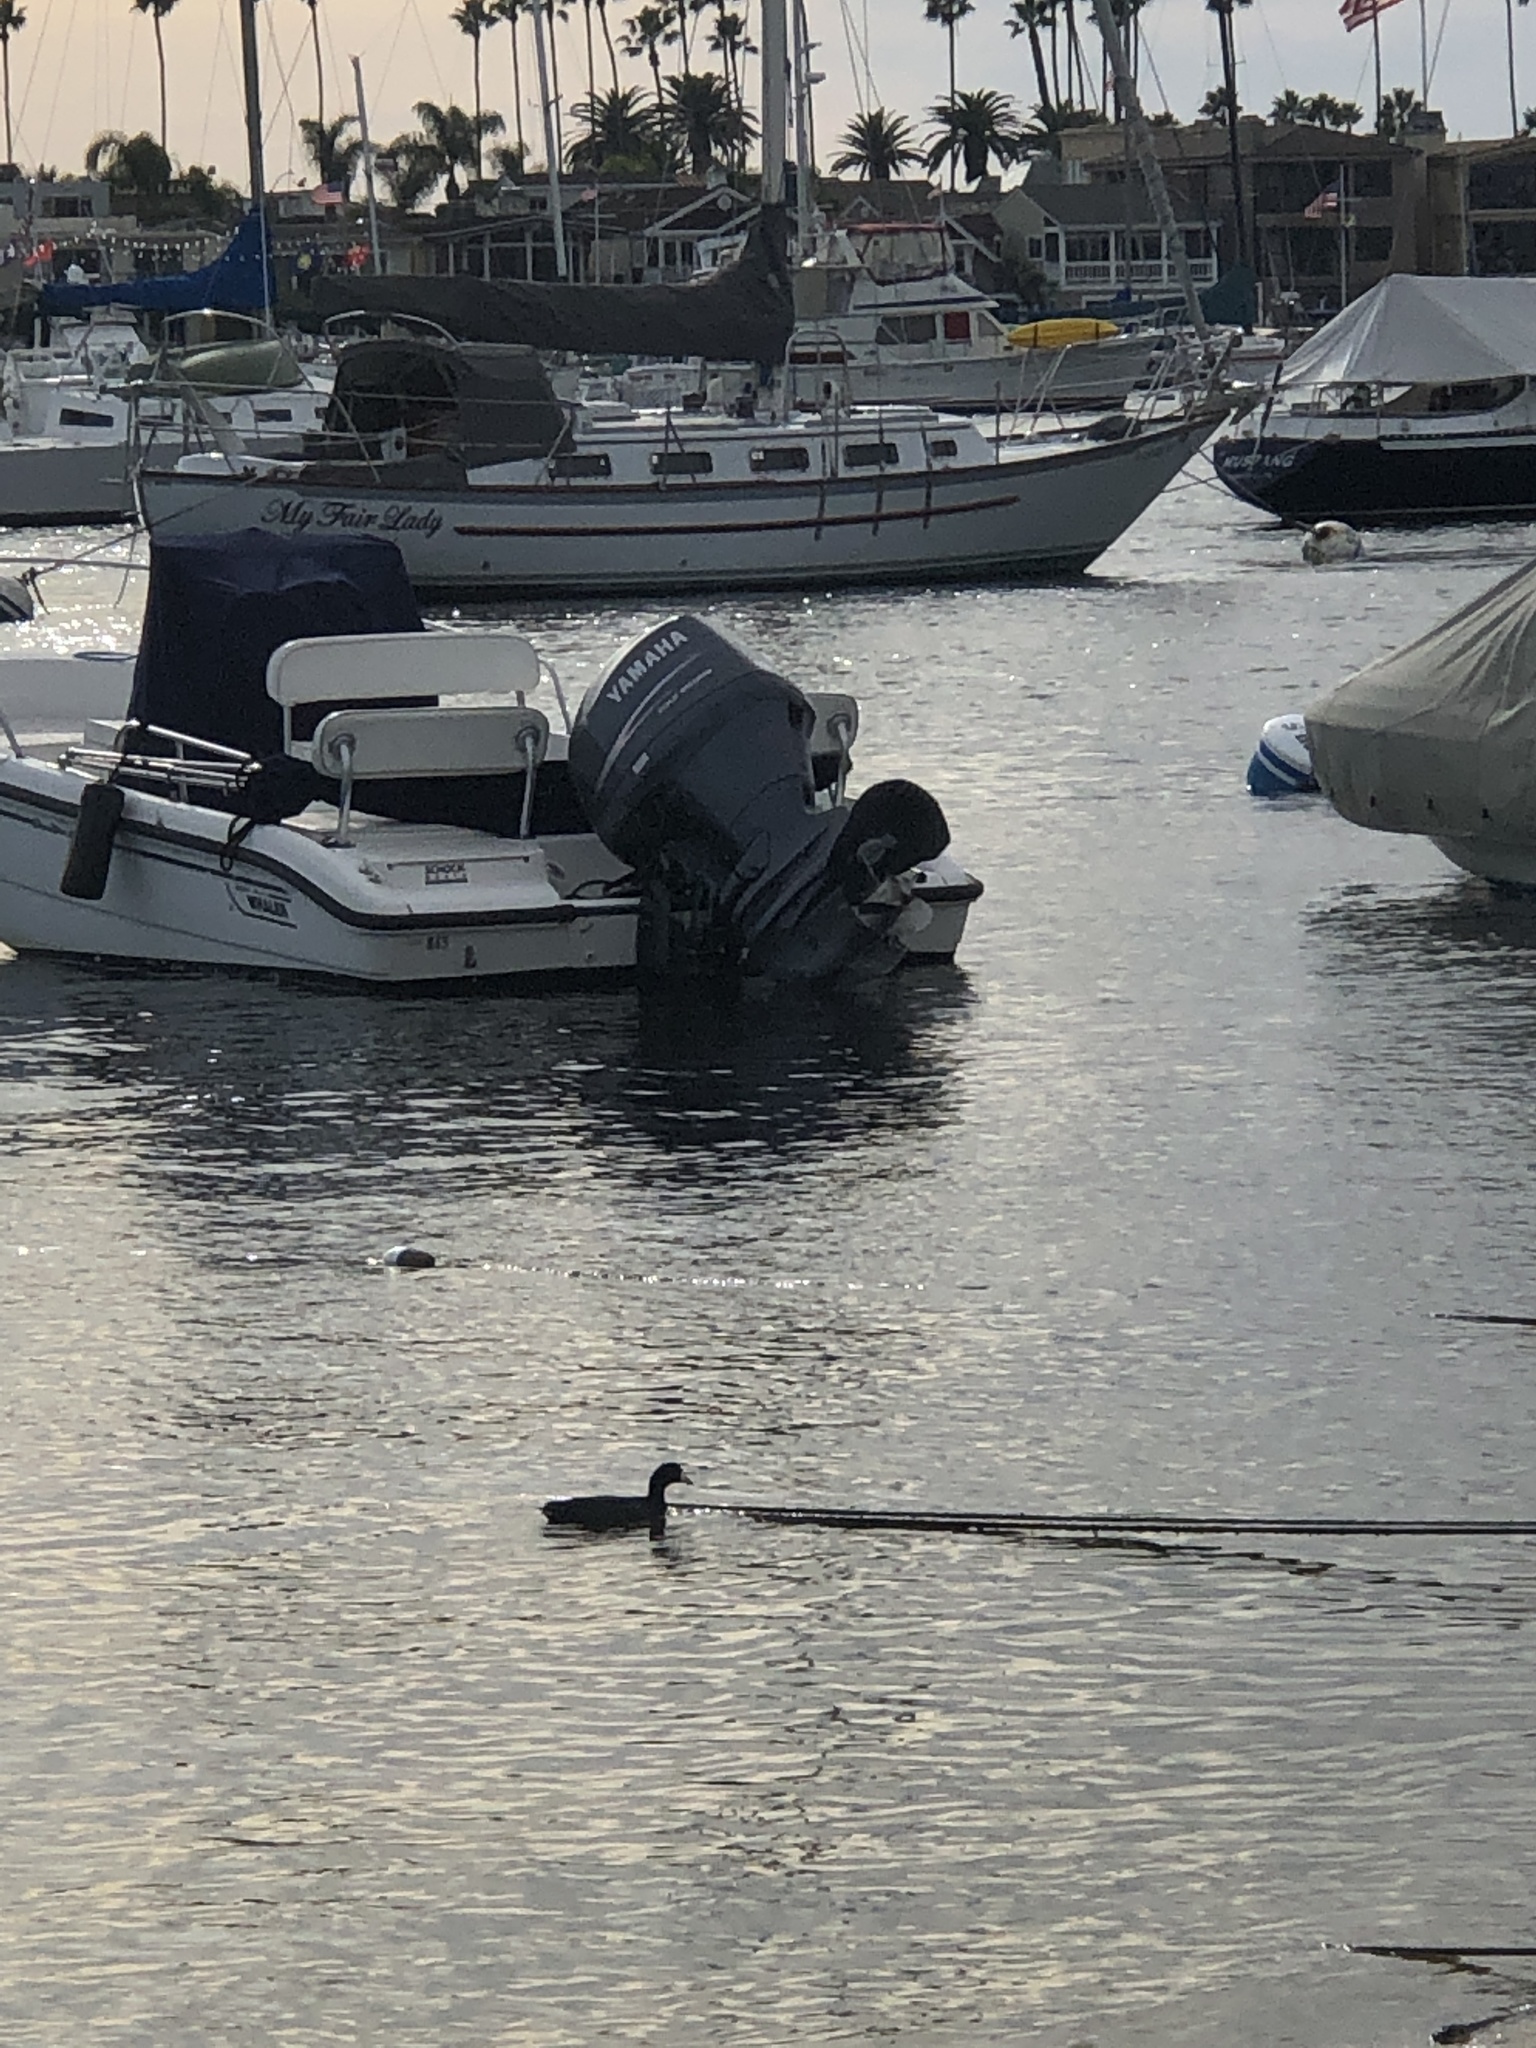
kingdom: Animalia
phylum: Chordata
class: Aves
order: Gruiformes
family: Rallidae
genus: Fulica
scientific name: Fulica americana
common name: American coot
